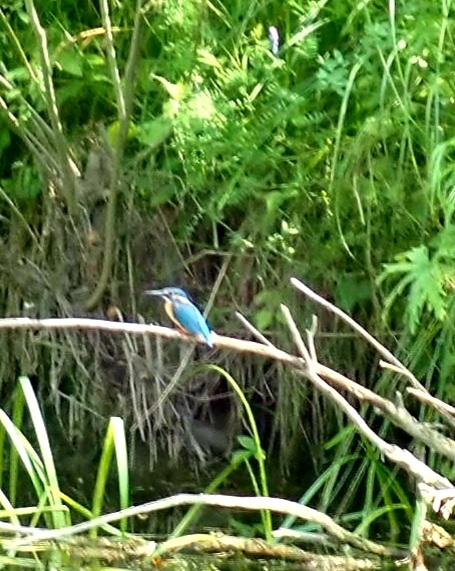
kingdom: Animalia
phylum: Chordata
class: Aves
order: Coraciiformes
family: Alcedinidae
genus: Alcedo
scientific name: Alcedo atthis
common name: Common kingfisher
